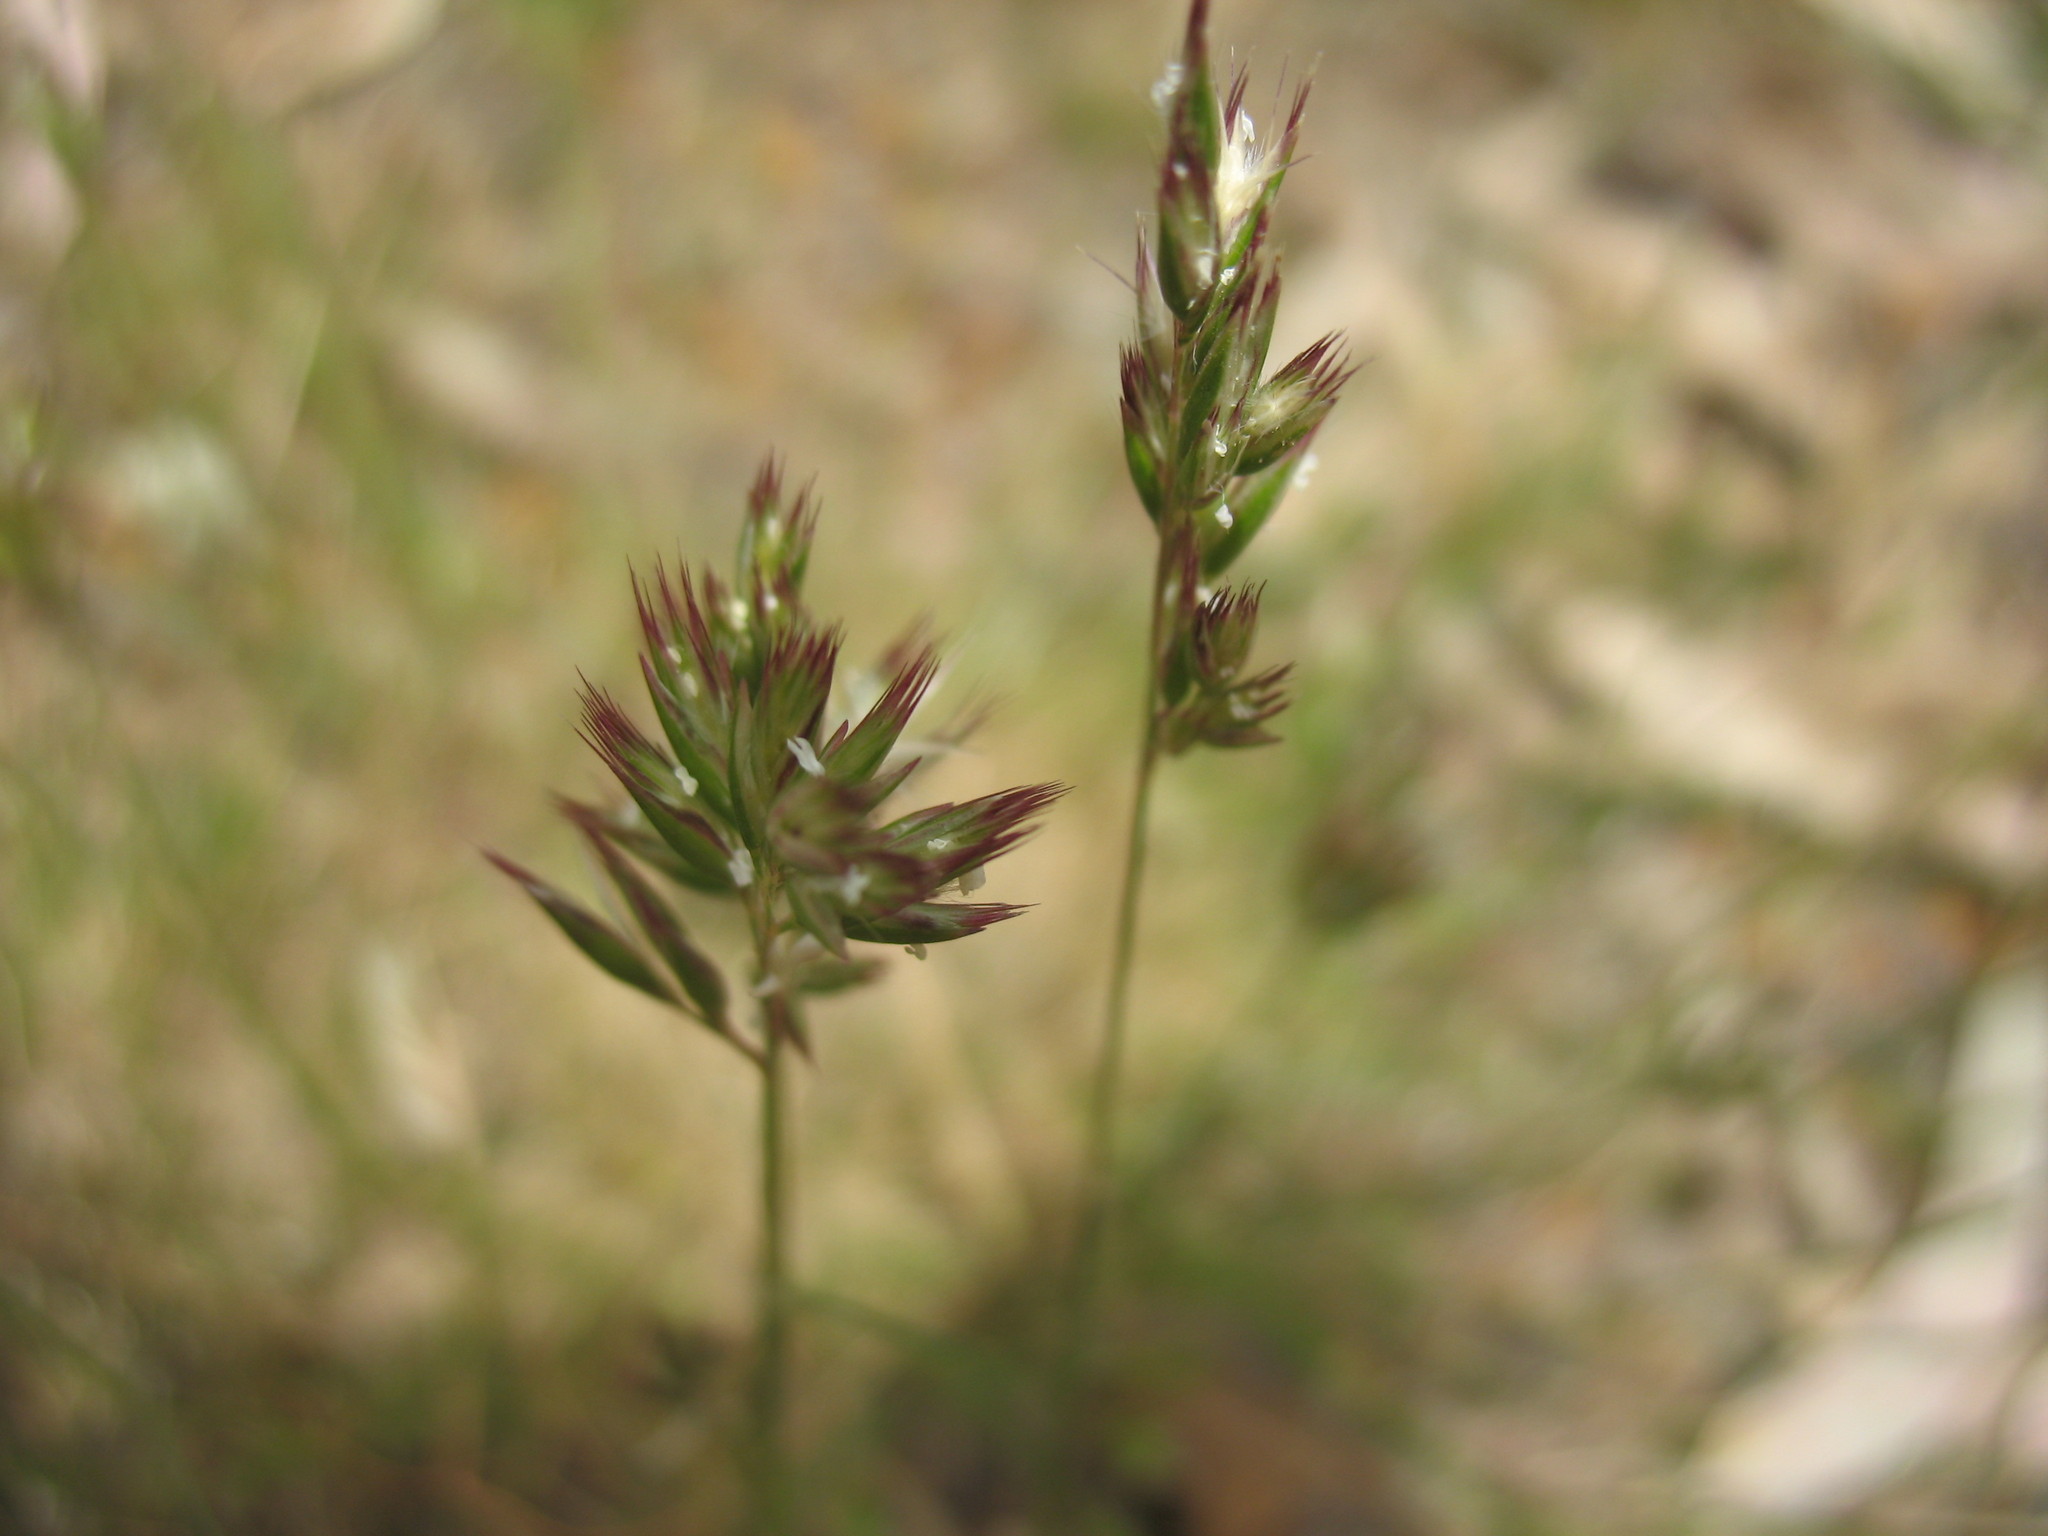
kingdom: Plantae
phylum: Tracheophyta
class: Liliopsida
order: Poales
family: Poaceae
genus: Rytidosperma
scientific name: Rytidosperma geniculatum
